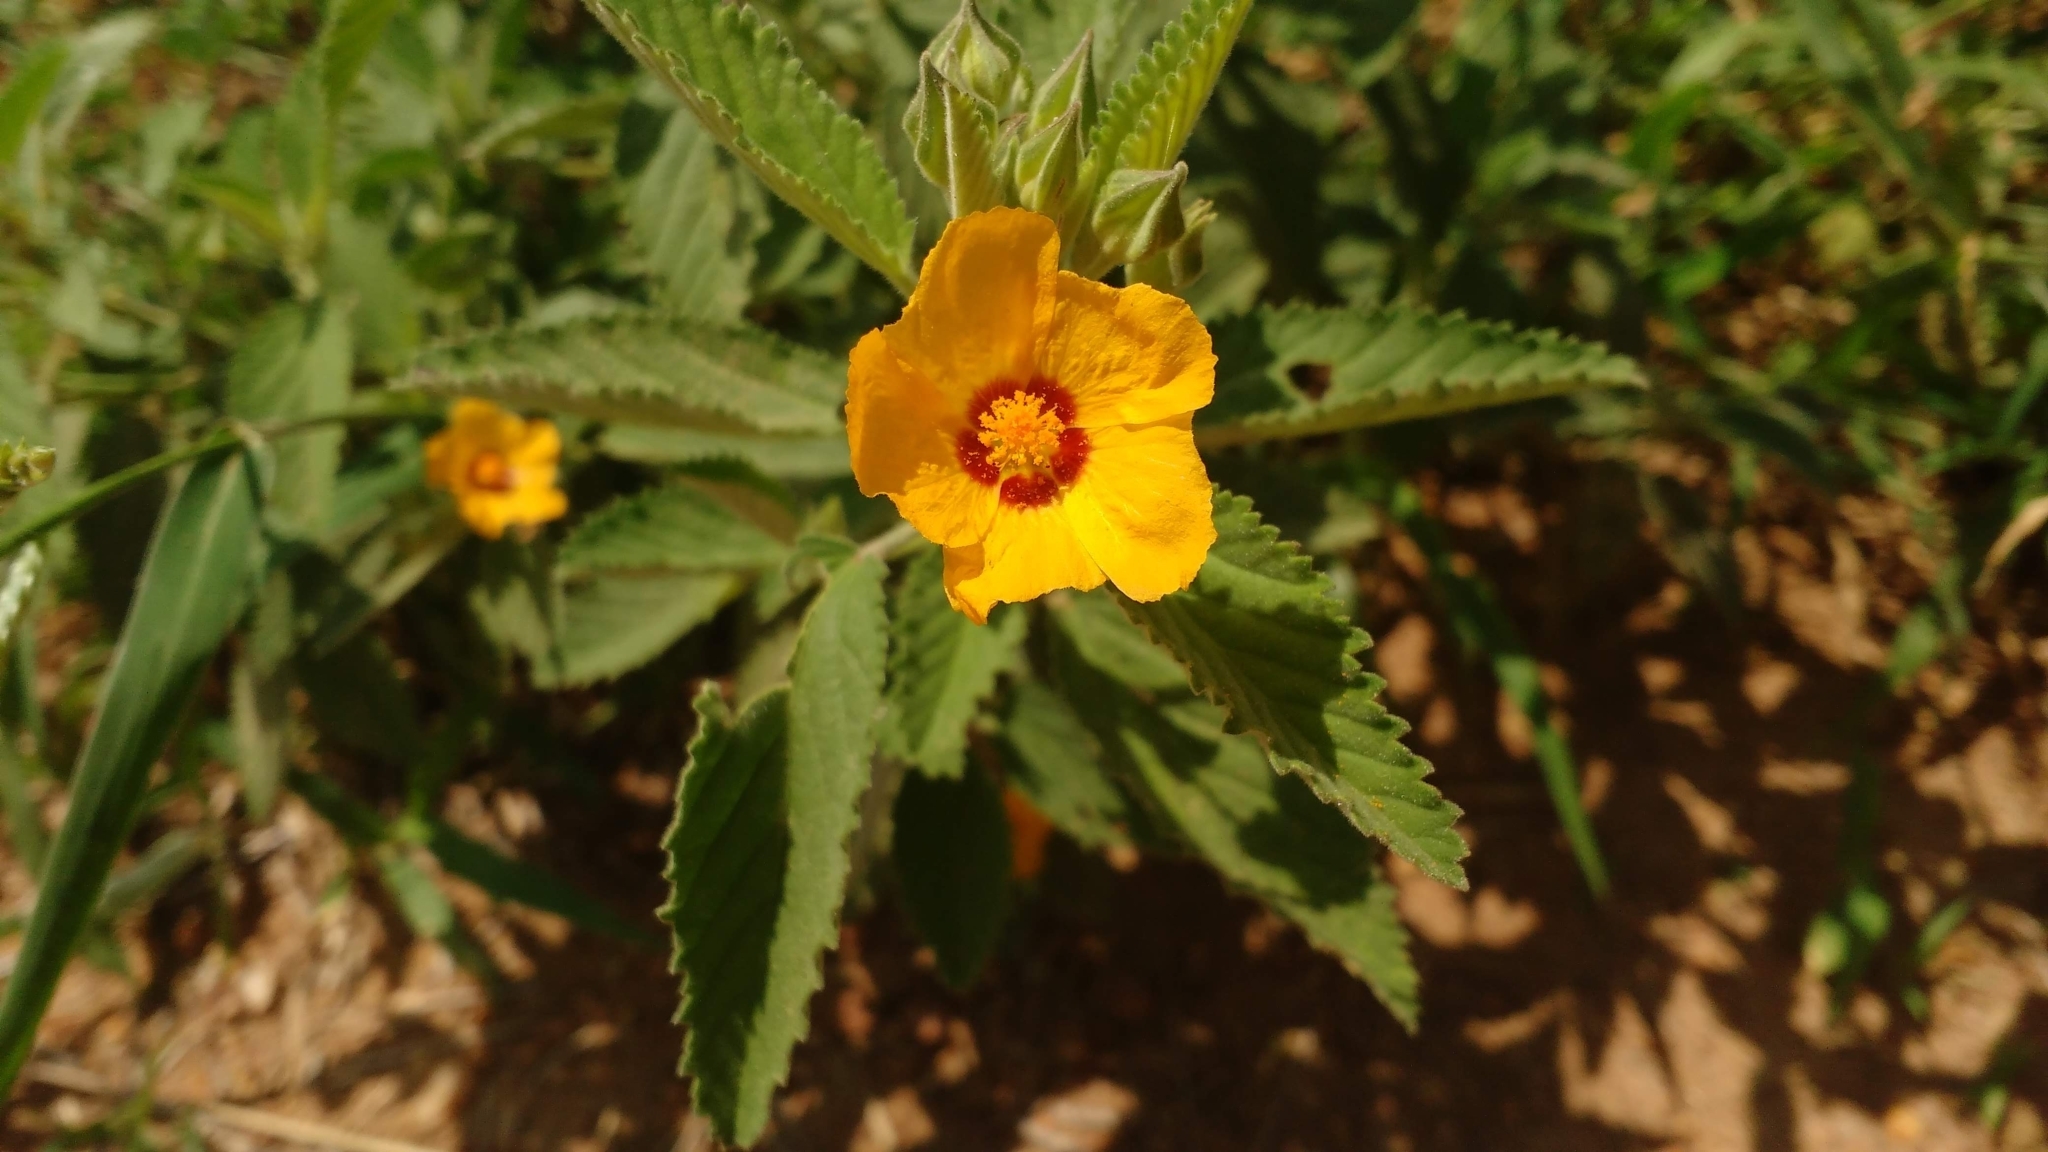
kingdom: Plantae
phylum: Tracheophyta
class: Magnoliopsida
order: Malvales
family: Malvaceae
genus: Sida
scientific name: Sida galheirensis
